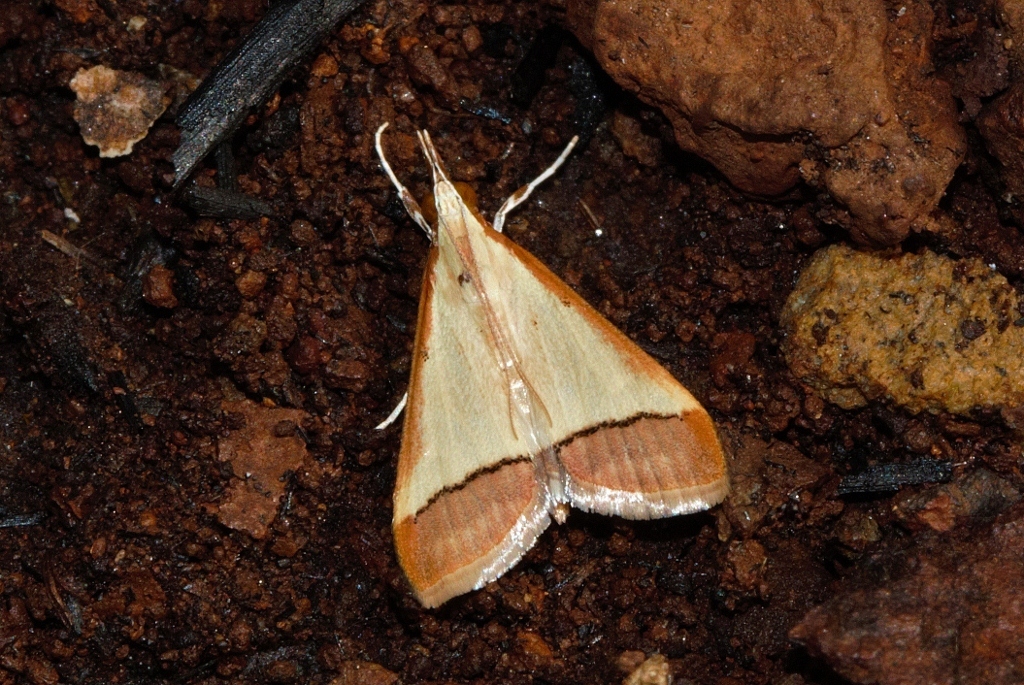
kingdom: Animalia
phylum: Arthropoda
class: Insecta
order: Lepidoptera
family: Crambidae
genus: Autocharis
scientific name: Autocharis rubricostalis
